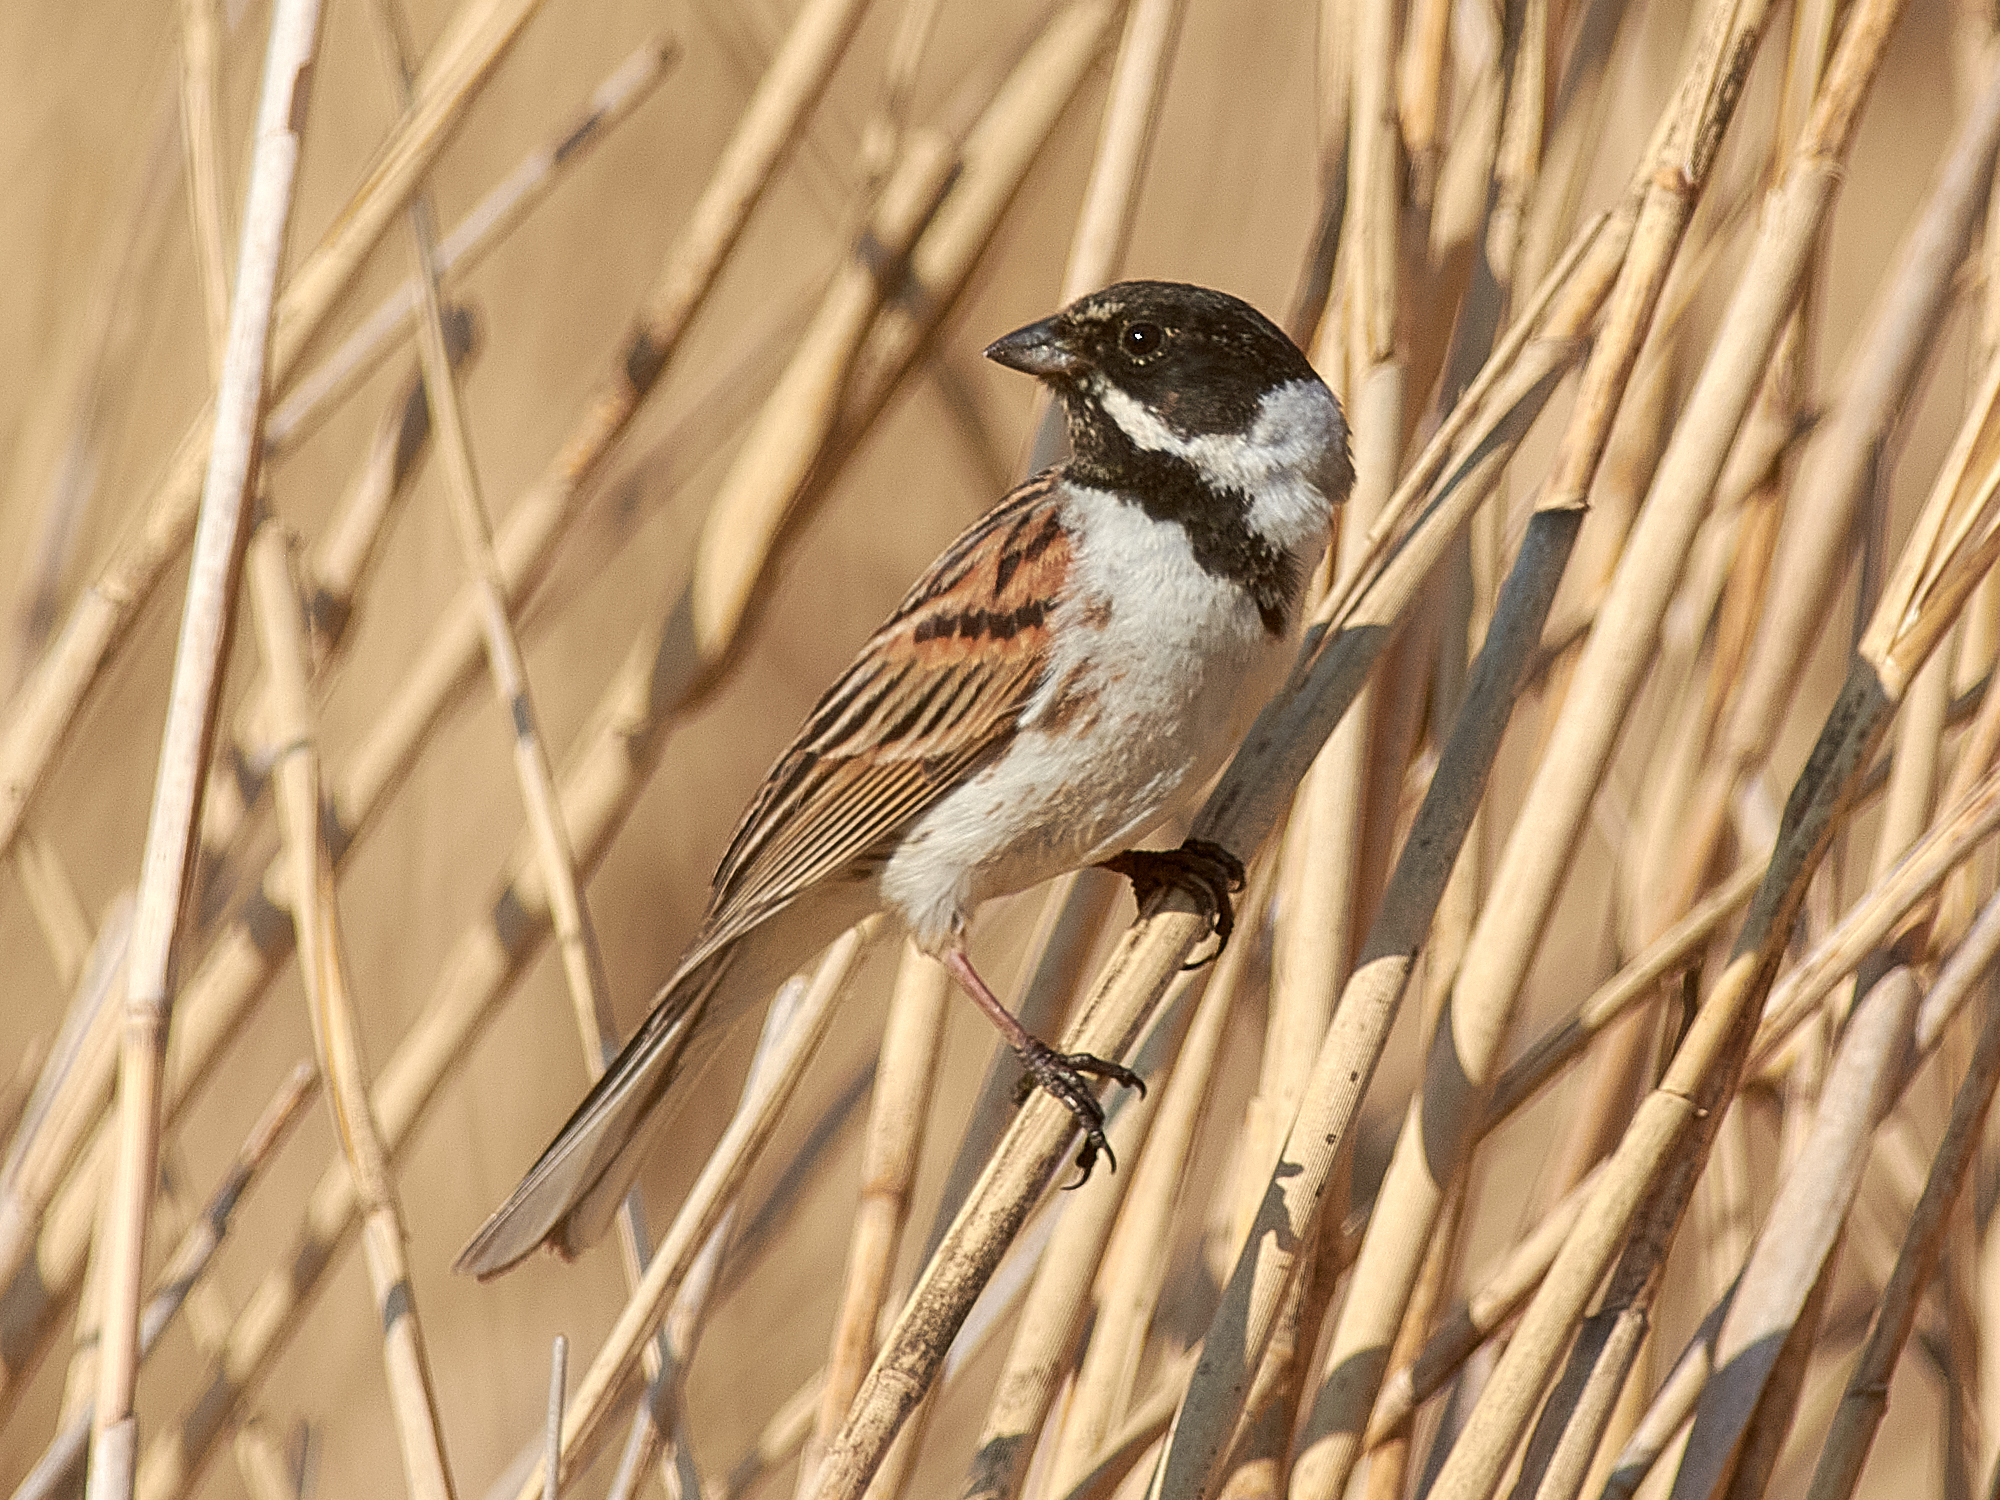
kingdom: Animalia
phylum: Chordata
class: Aves
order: Passeriformes
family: Emberizidae
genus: Emberiza
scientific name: Emberiza schoeniclus
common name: Reed bunting
